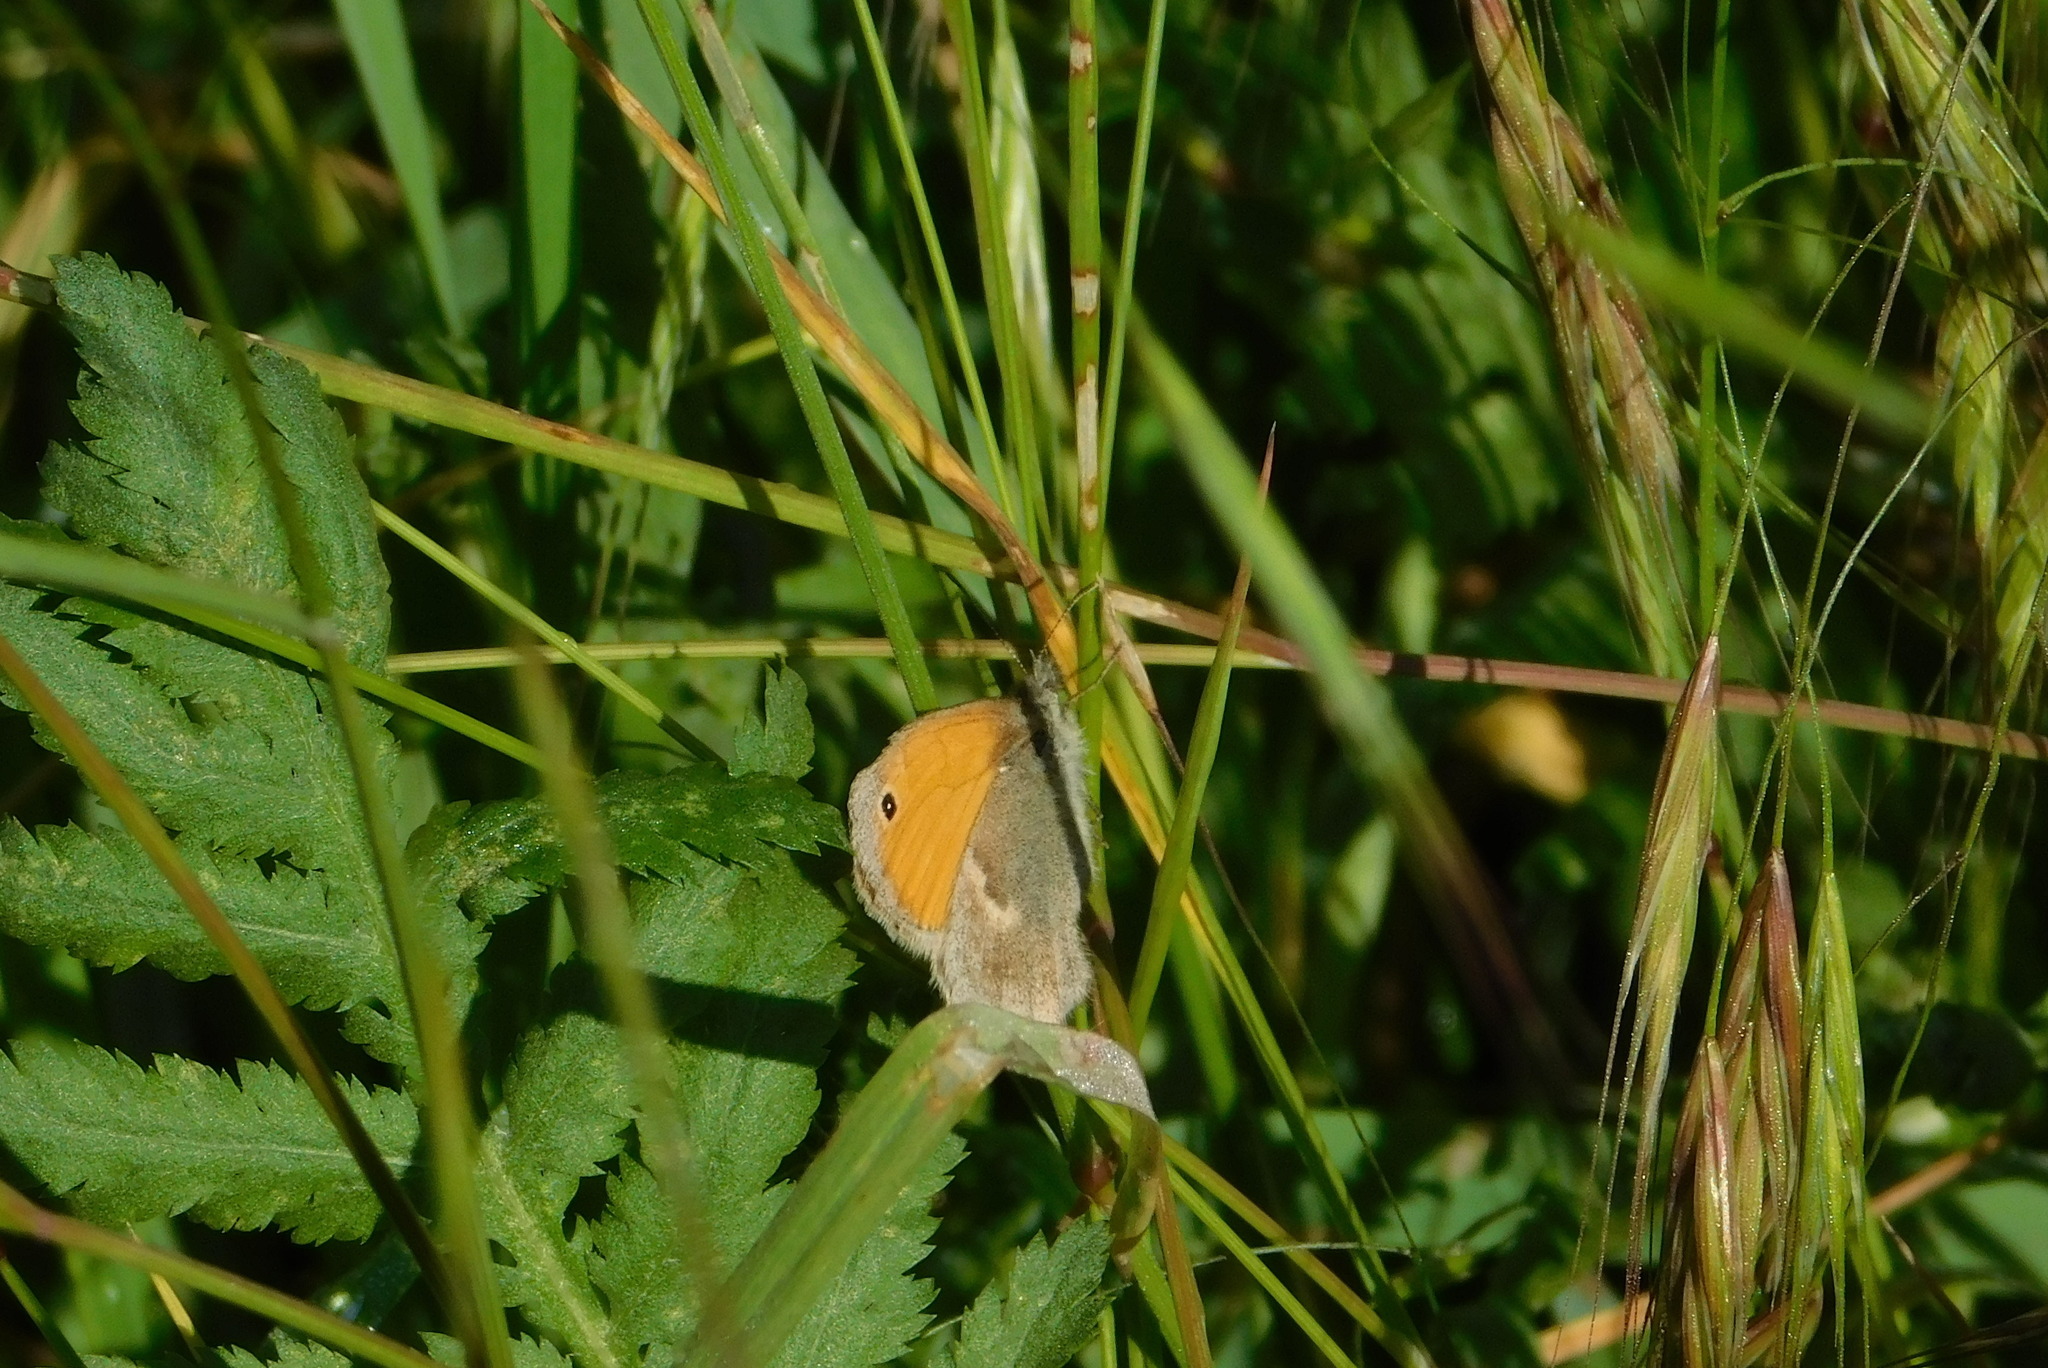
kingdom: Animalia
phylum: Arthropoda
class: Insecta
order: Lepidoptera
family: Nymphalidae
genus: Coenonympha
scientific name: Coenonympha pamphilus
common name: Small heath
